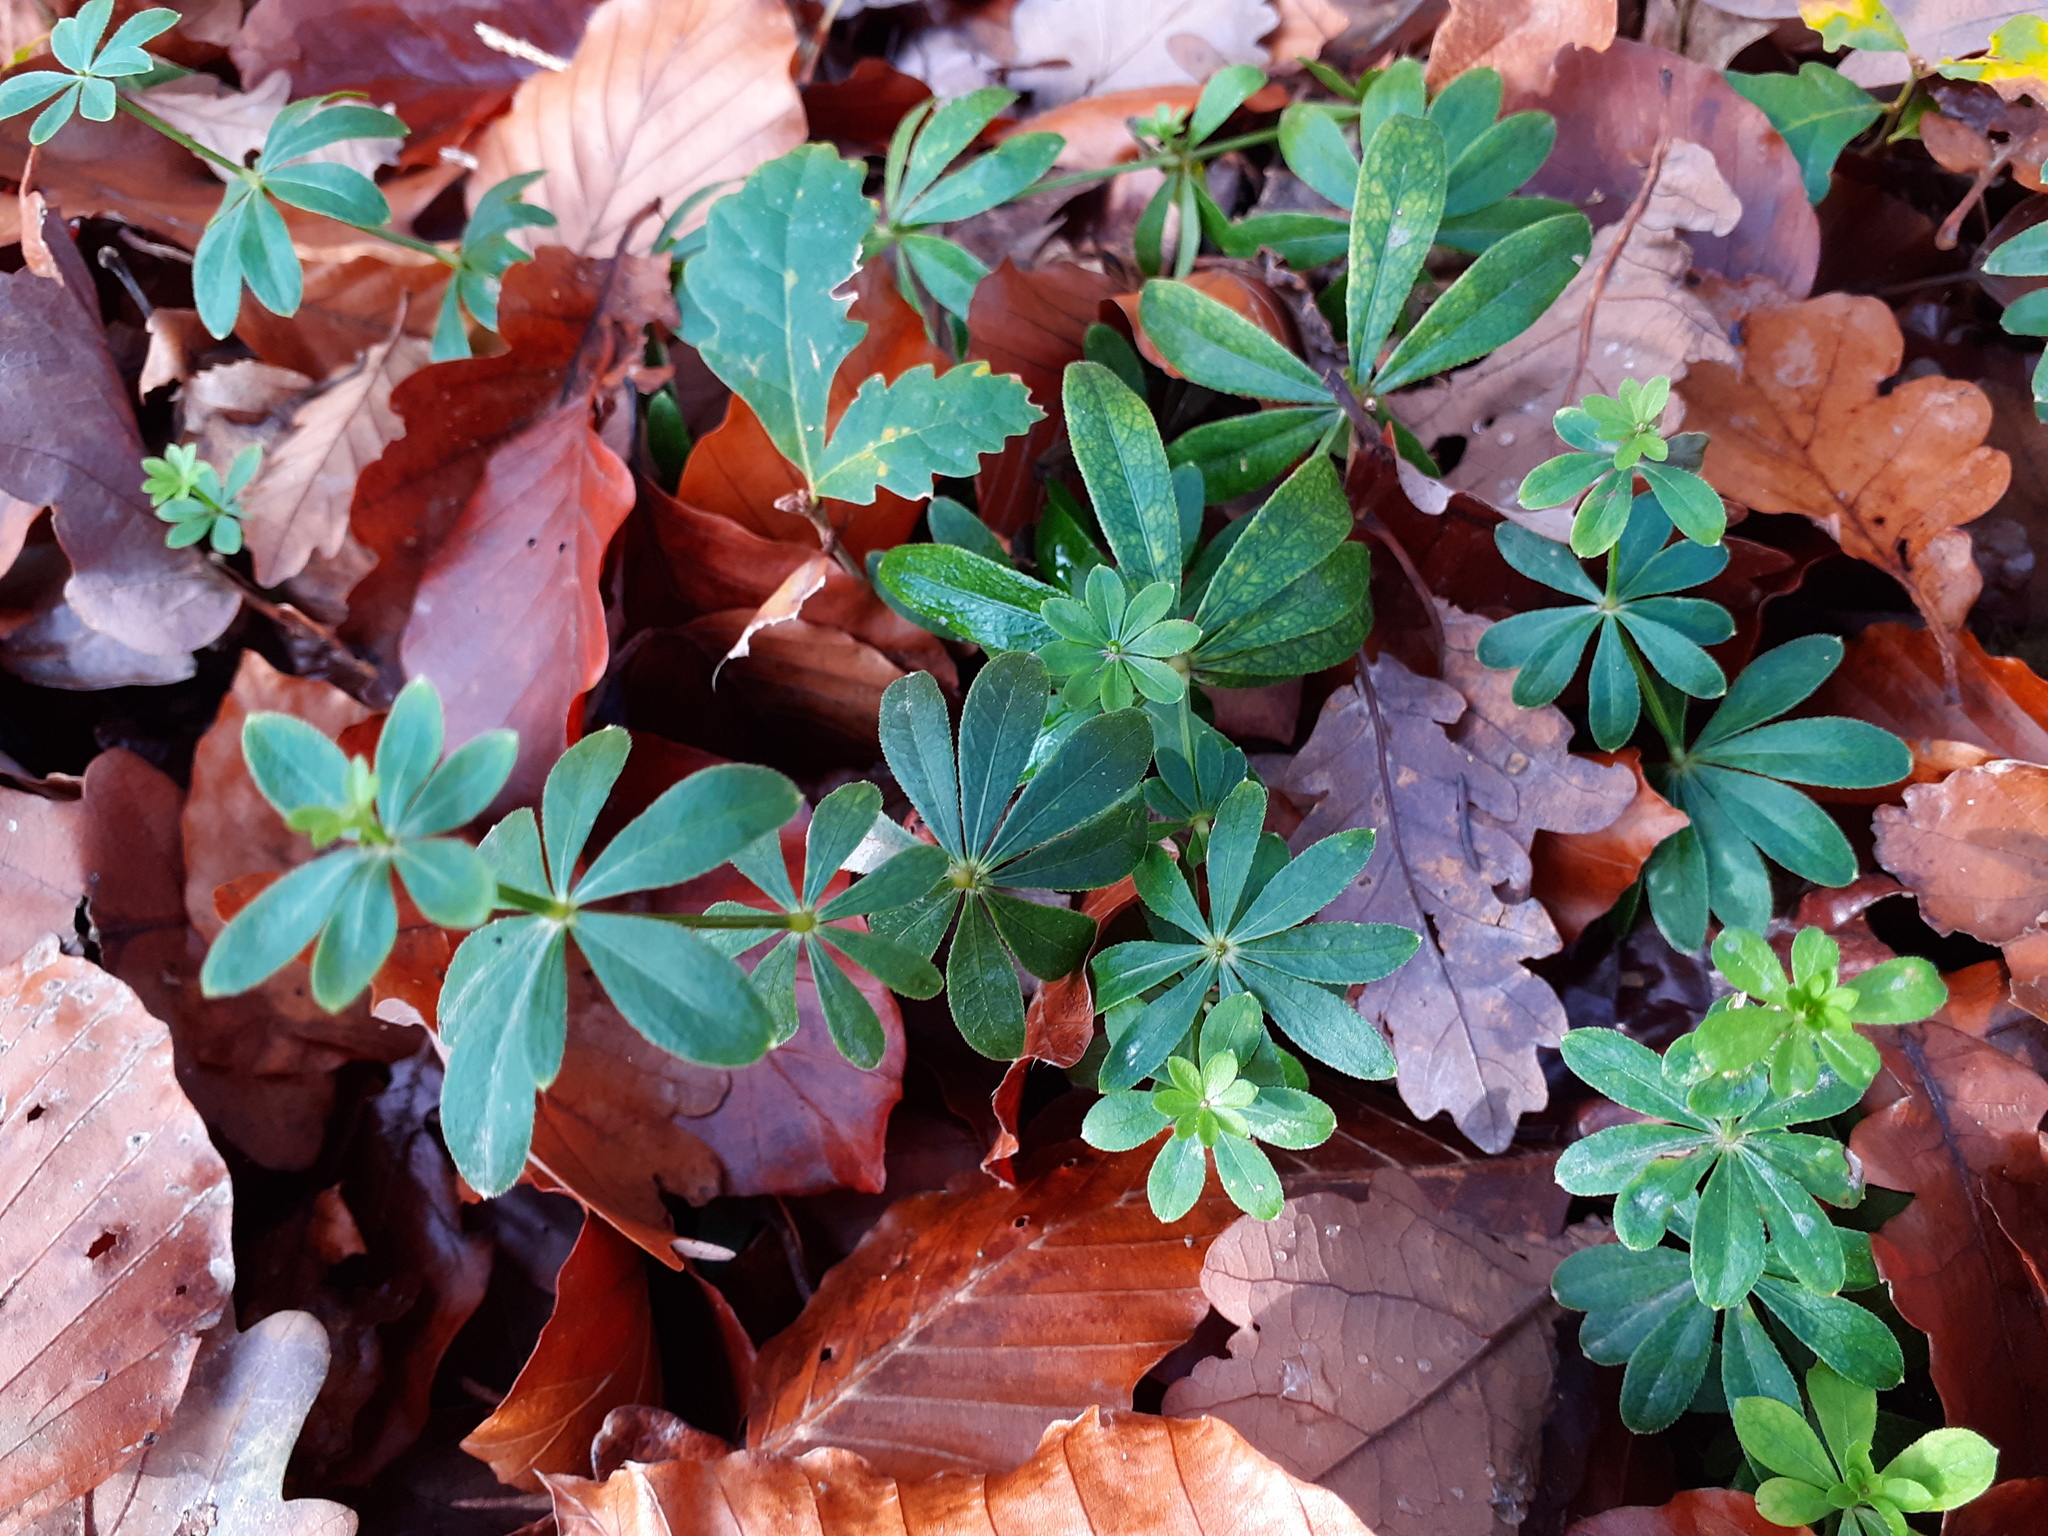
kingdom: Plantae
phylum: Tracheophyta
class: Magnoliopsida
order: Gentianales
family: Rubiaceae
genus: Galium
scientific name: Galium odoratum
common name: Sweet woodruff
